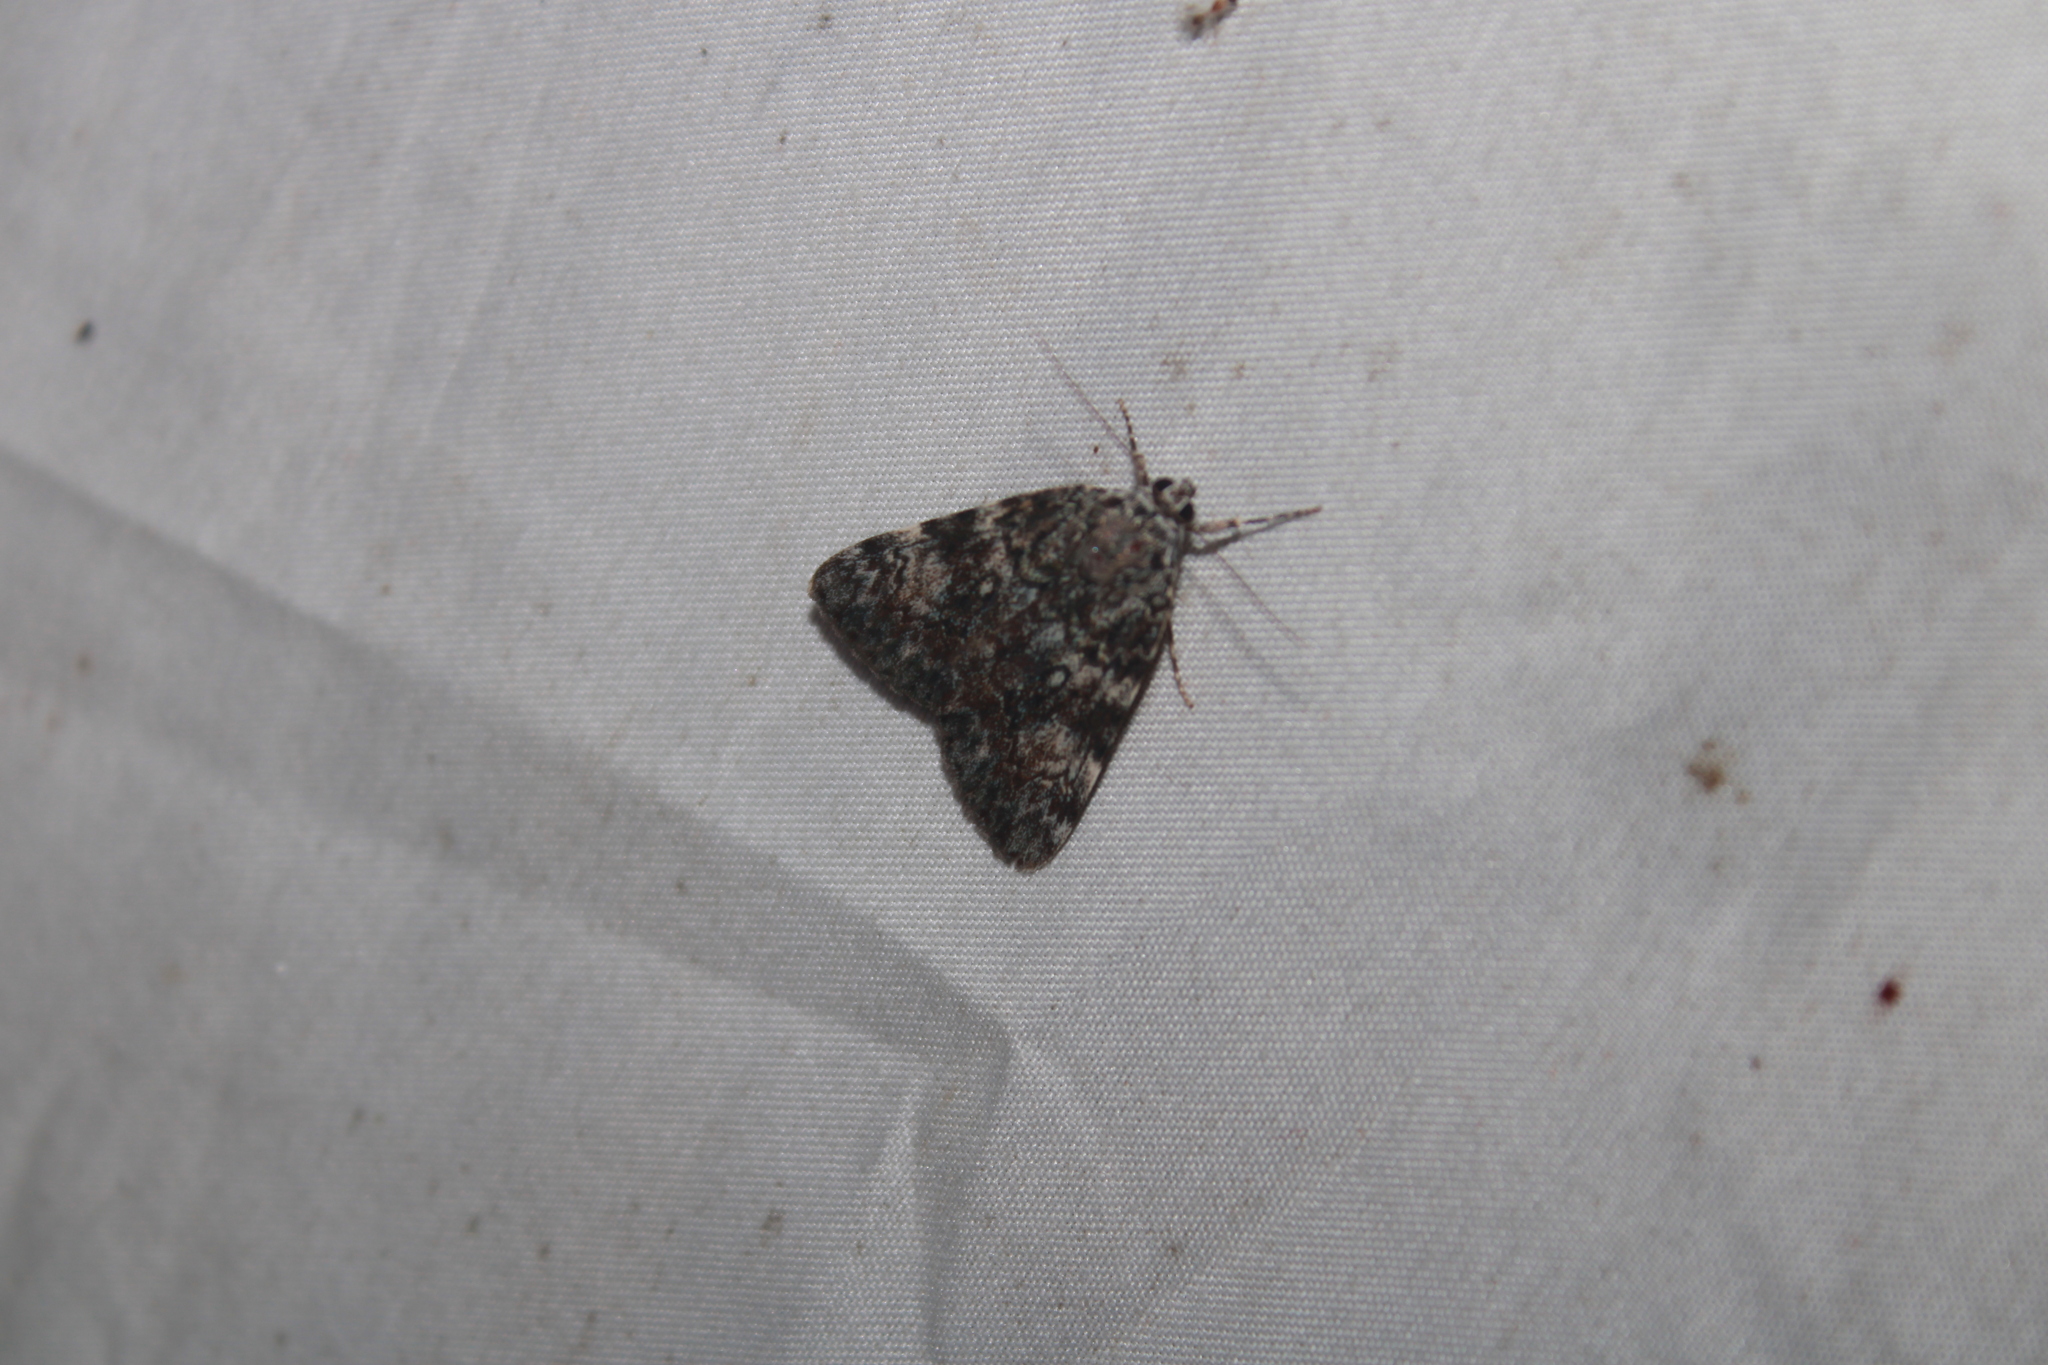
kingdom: Animalia
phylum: Arthropoda
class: Insecta
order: Lepidoptera
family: Erebidae
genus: Catocala
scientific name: Catocala lineella
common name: Little lined underwing
